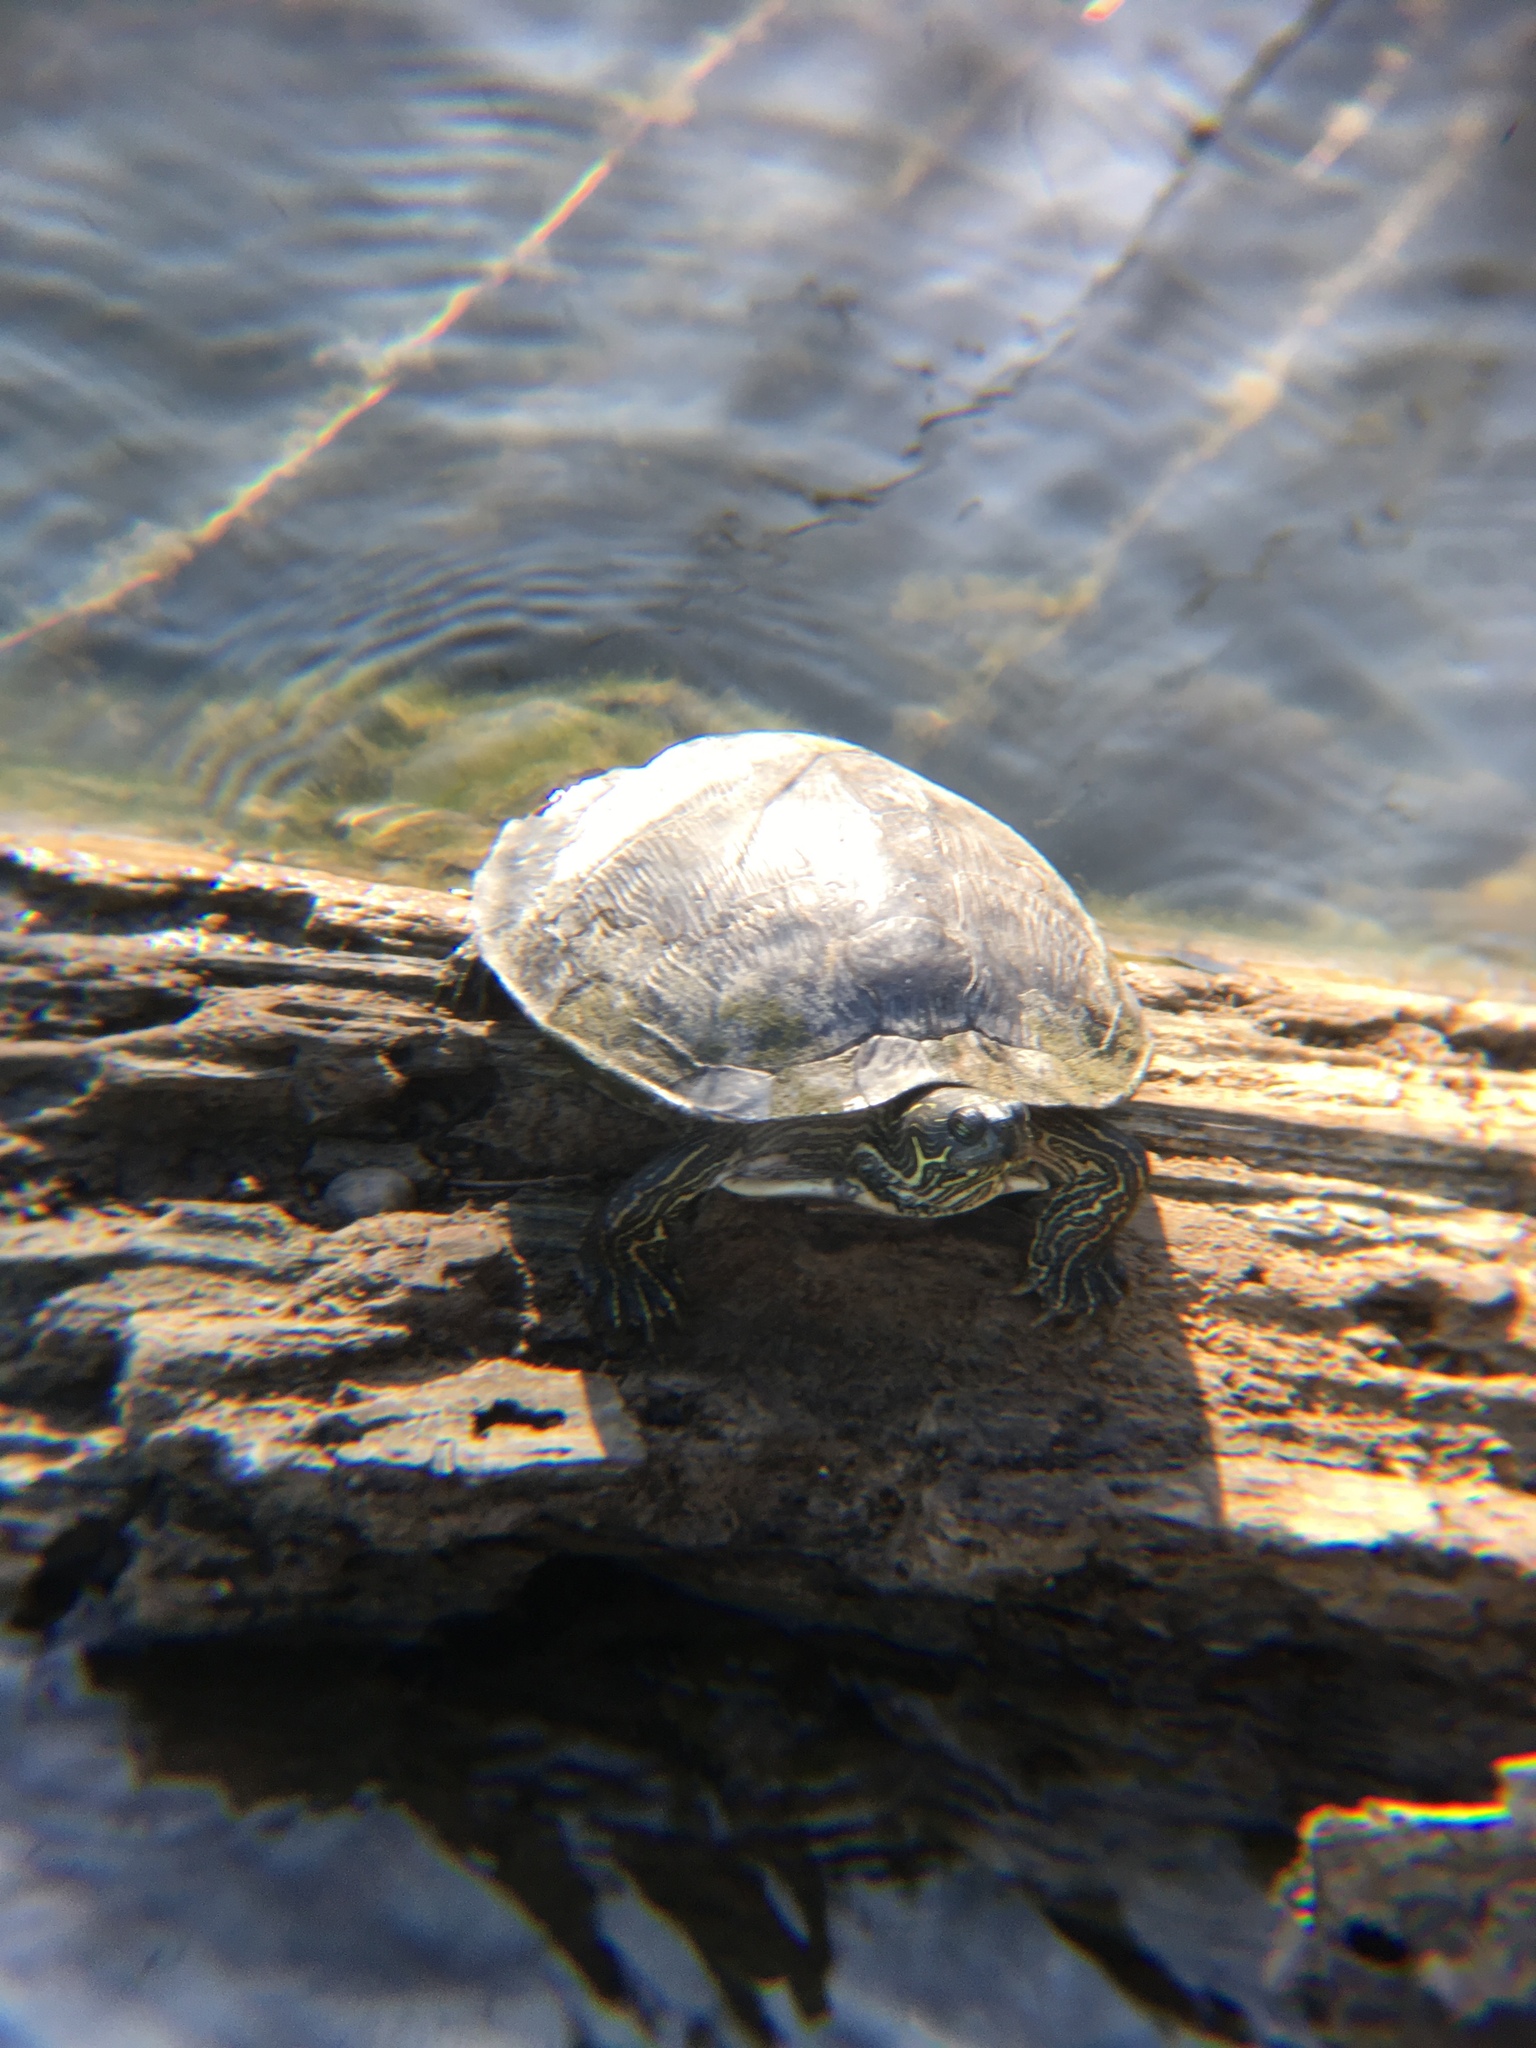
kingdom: Animalia
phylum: Chordata
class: Testudines
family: Emydidae
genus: Pseudemys
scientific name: Pseudemys texana
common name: Texas river cooter
